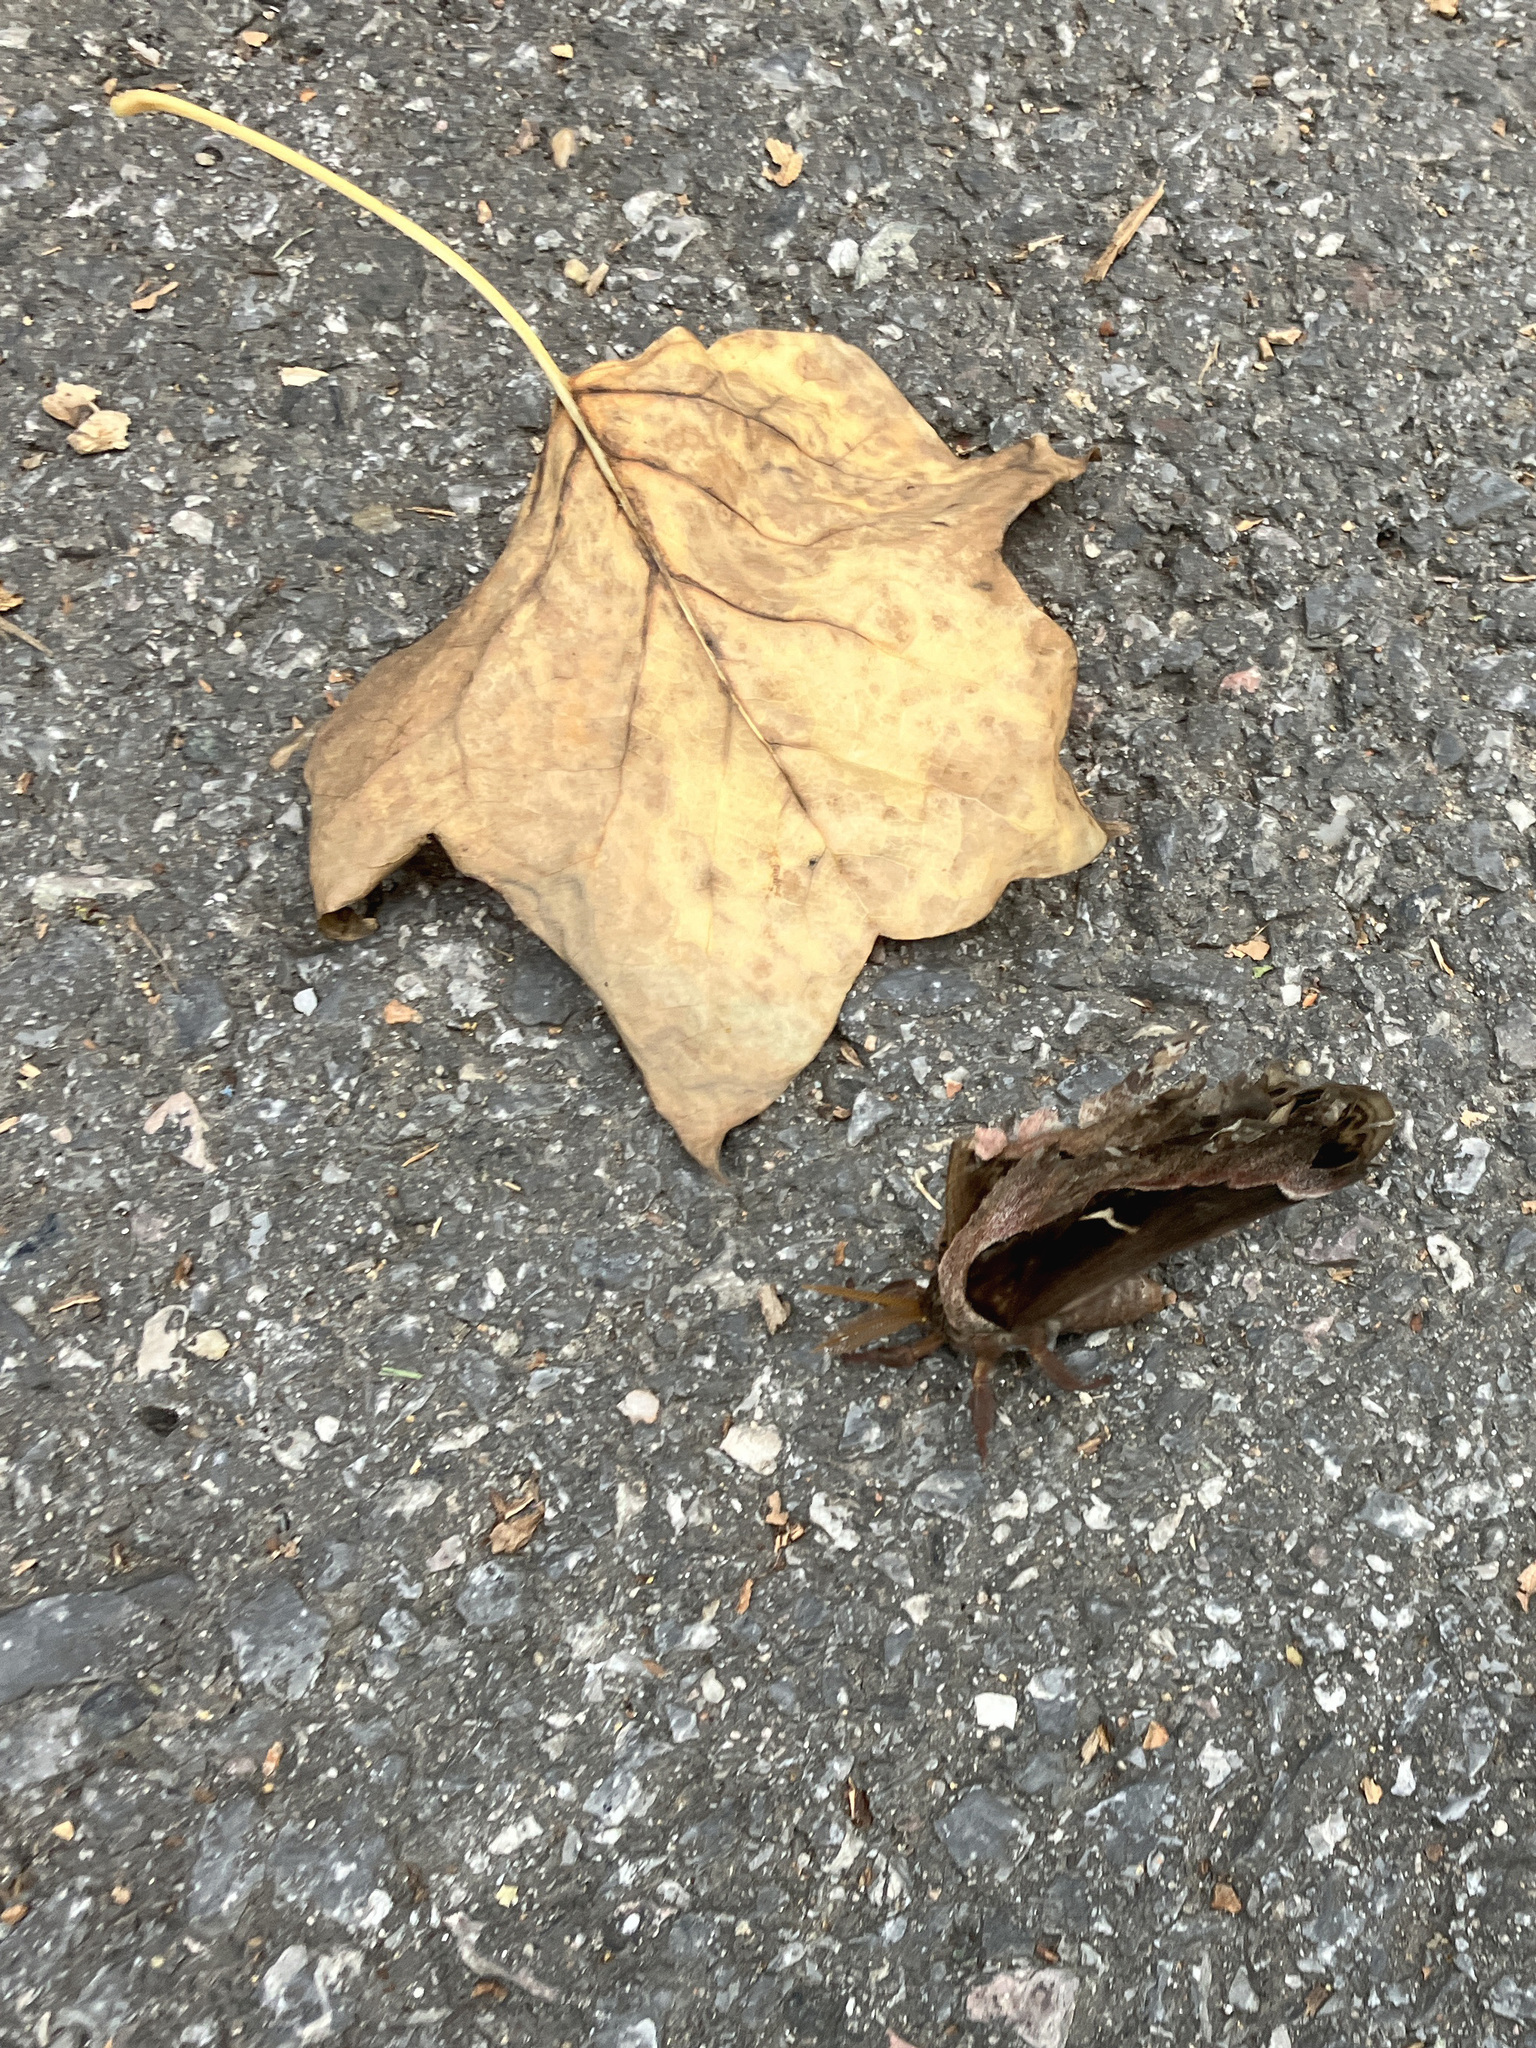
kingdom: Animalia
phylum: Arthropoda
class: Insecta
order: Lepidoptera
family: Saturniidae
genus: Callosamia
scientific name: Callosamia angulifera
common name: Tulip tree silkmoth
